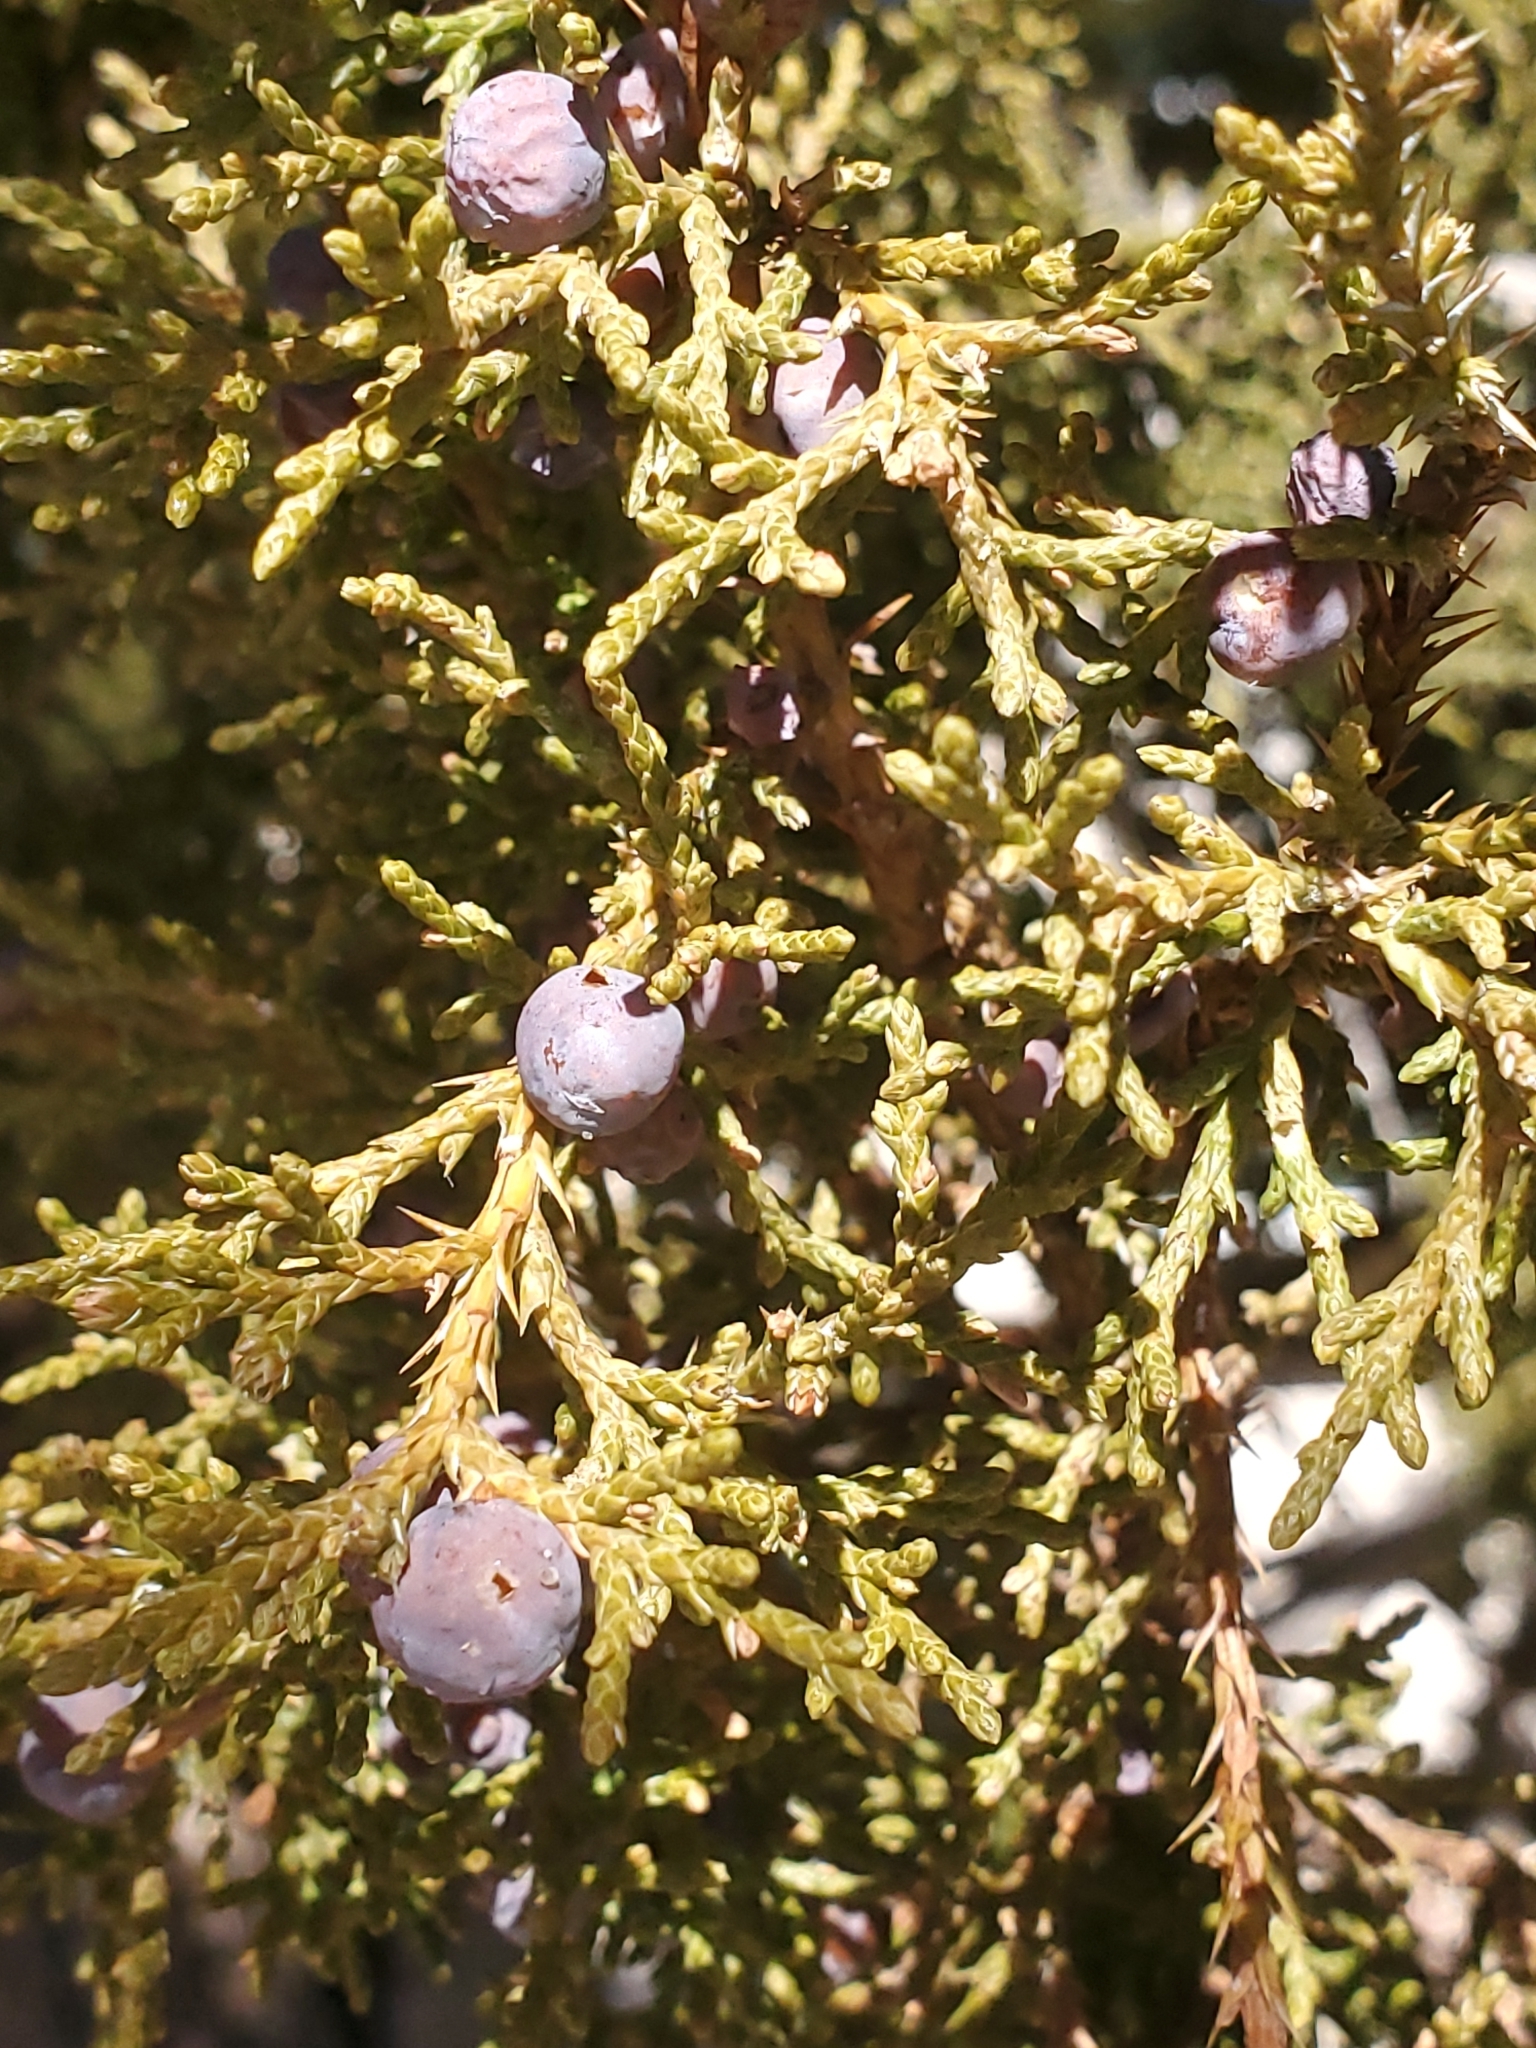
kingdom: Plantae
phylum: Tracheophyta
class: Pinopsida
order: Pinales
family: Cupressaceae
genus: Juniperus
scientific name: Juniperus monosperma
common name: One-seed juniper
